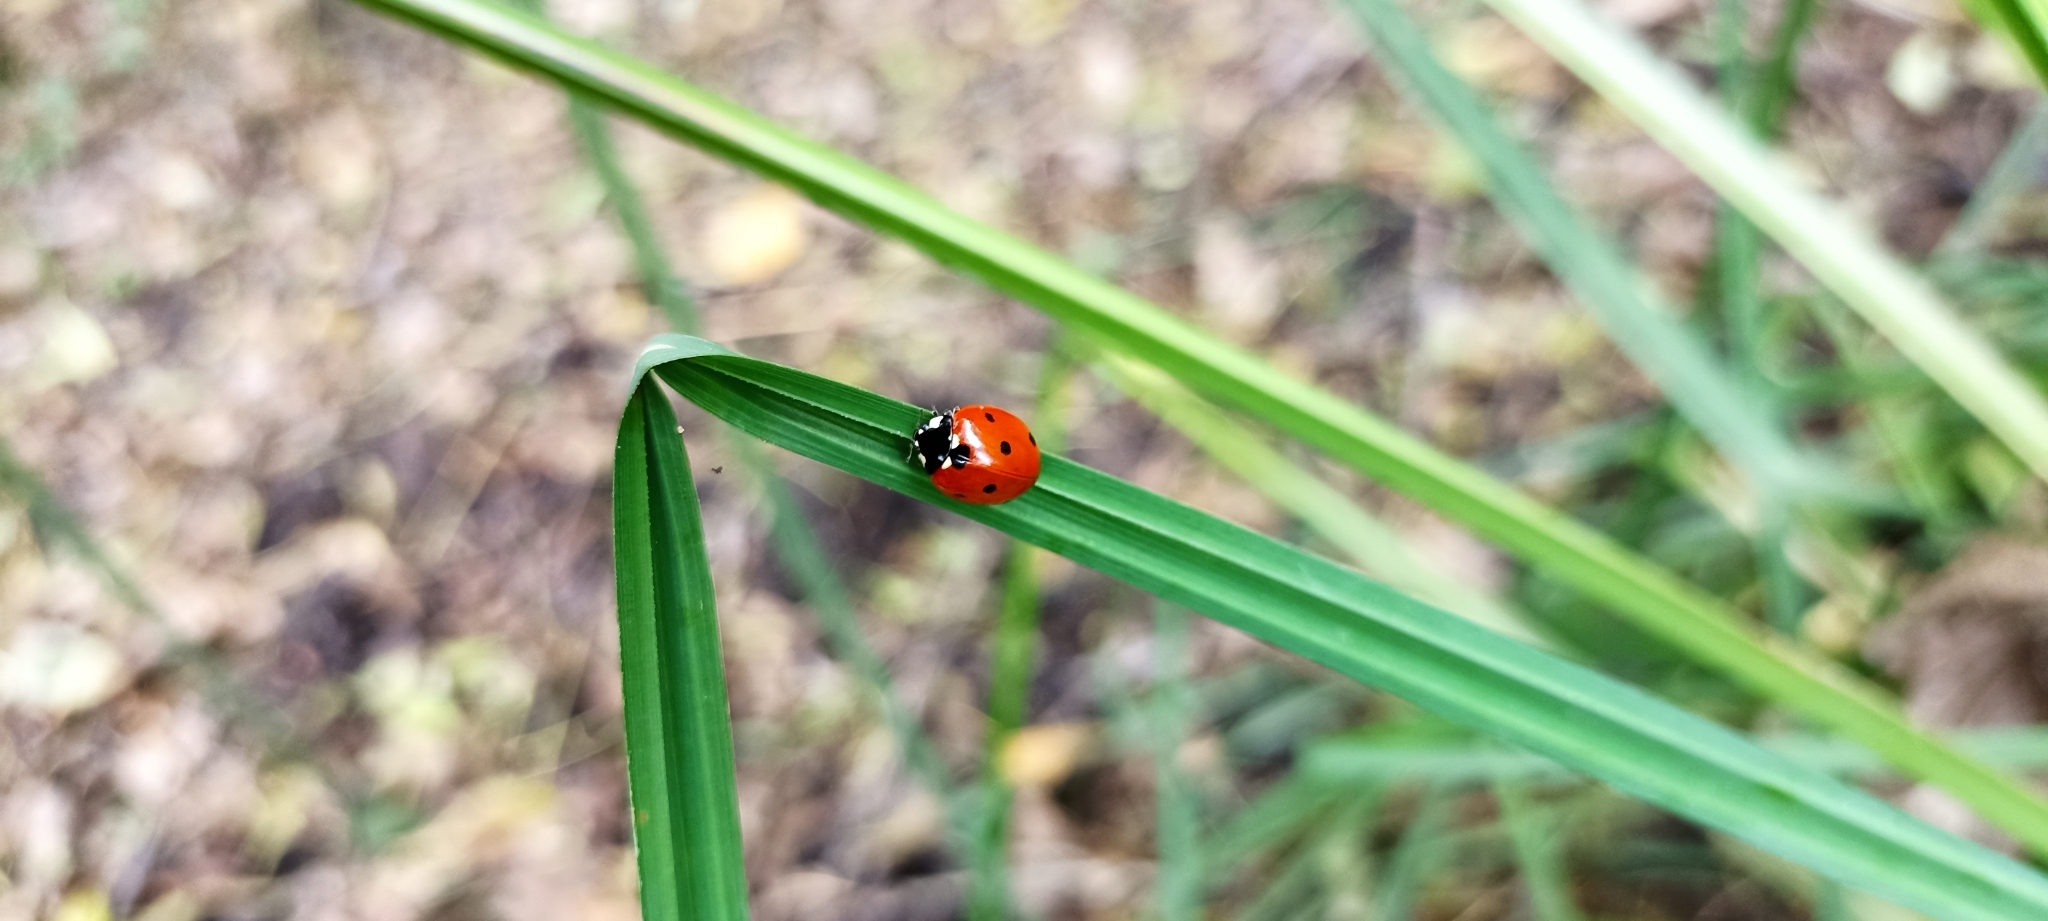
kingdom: Animalia
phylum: Arthropoda
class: Insecta
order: Coleoptera
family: Coccinellidae
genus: Coccinella
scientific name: Coccinella septempunctata
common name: Sevenspotted lady beetle
